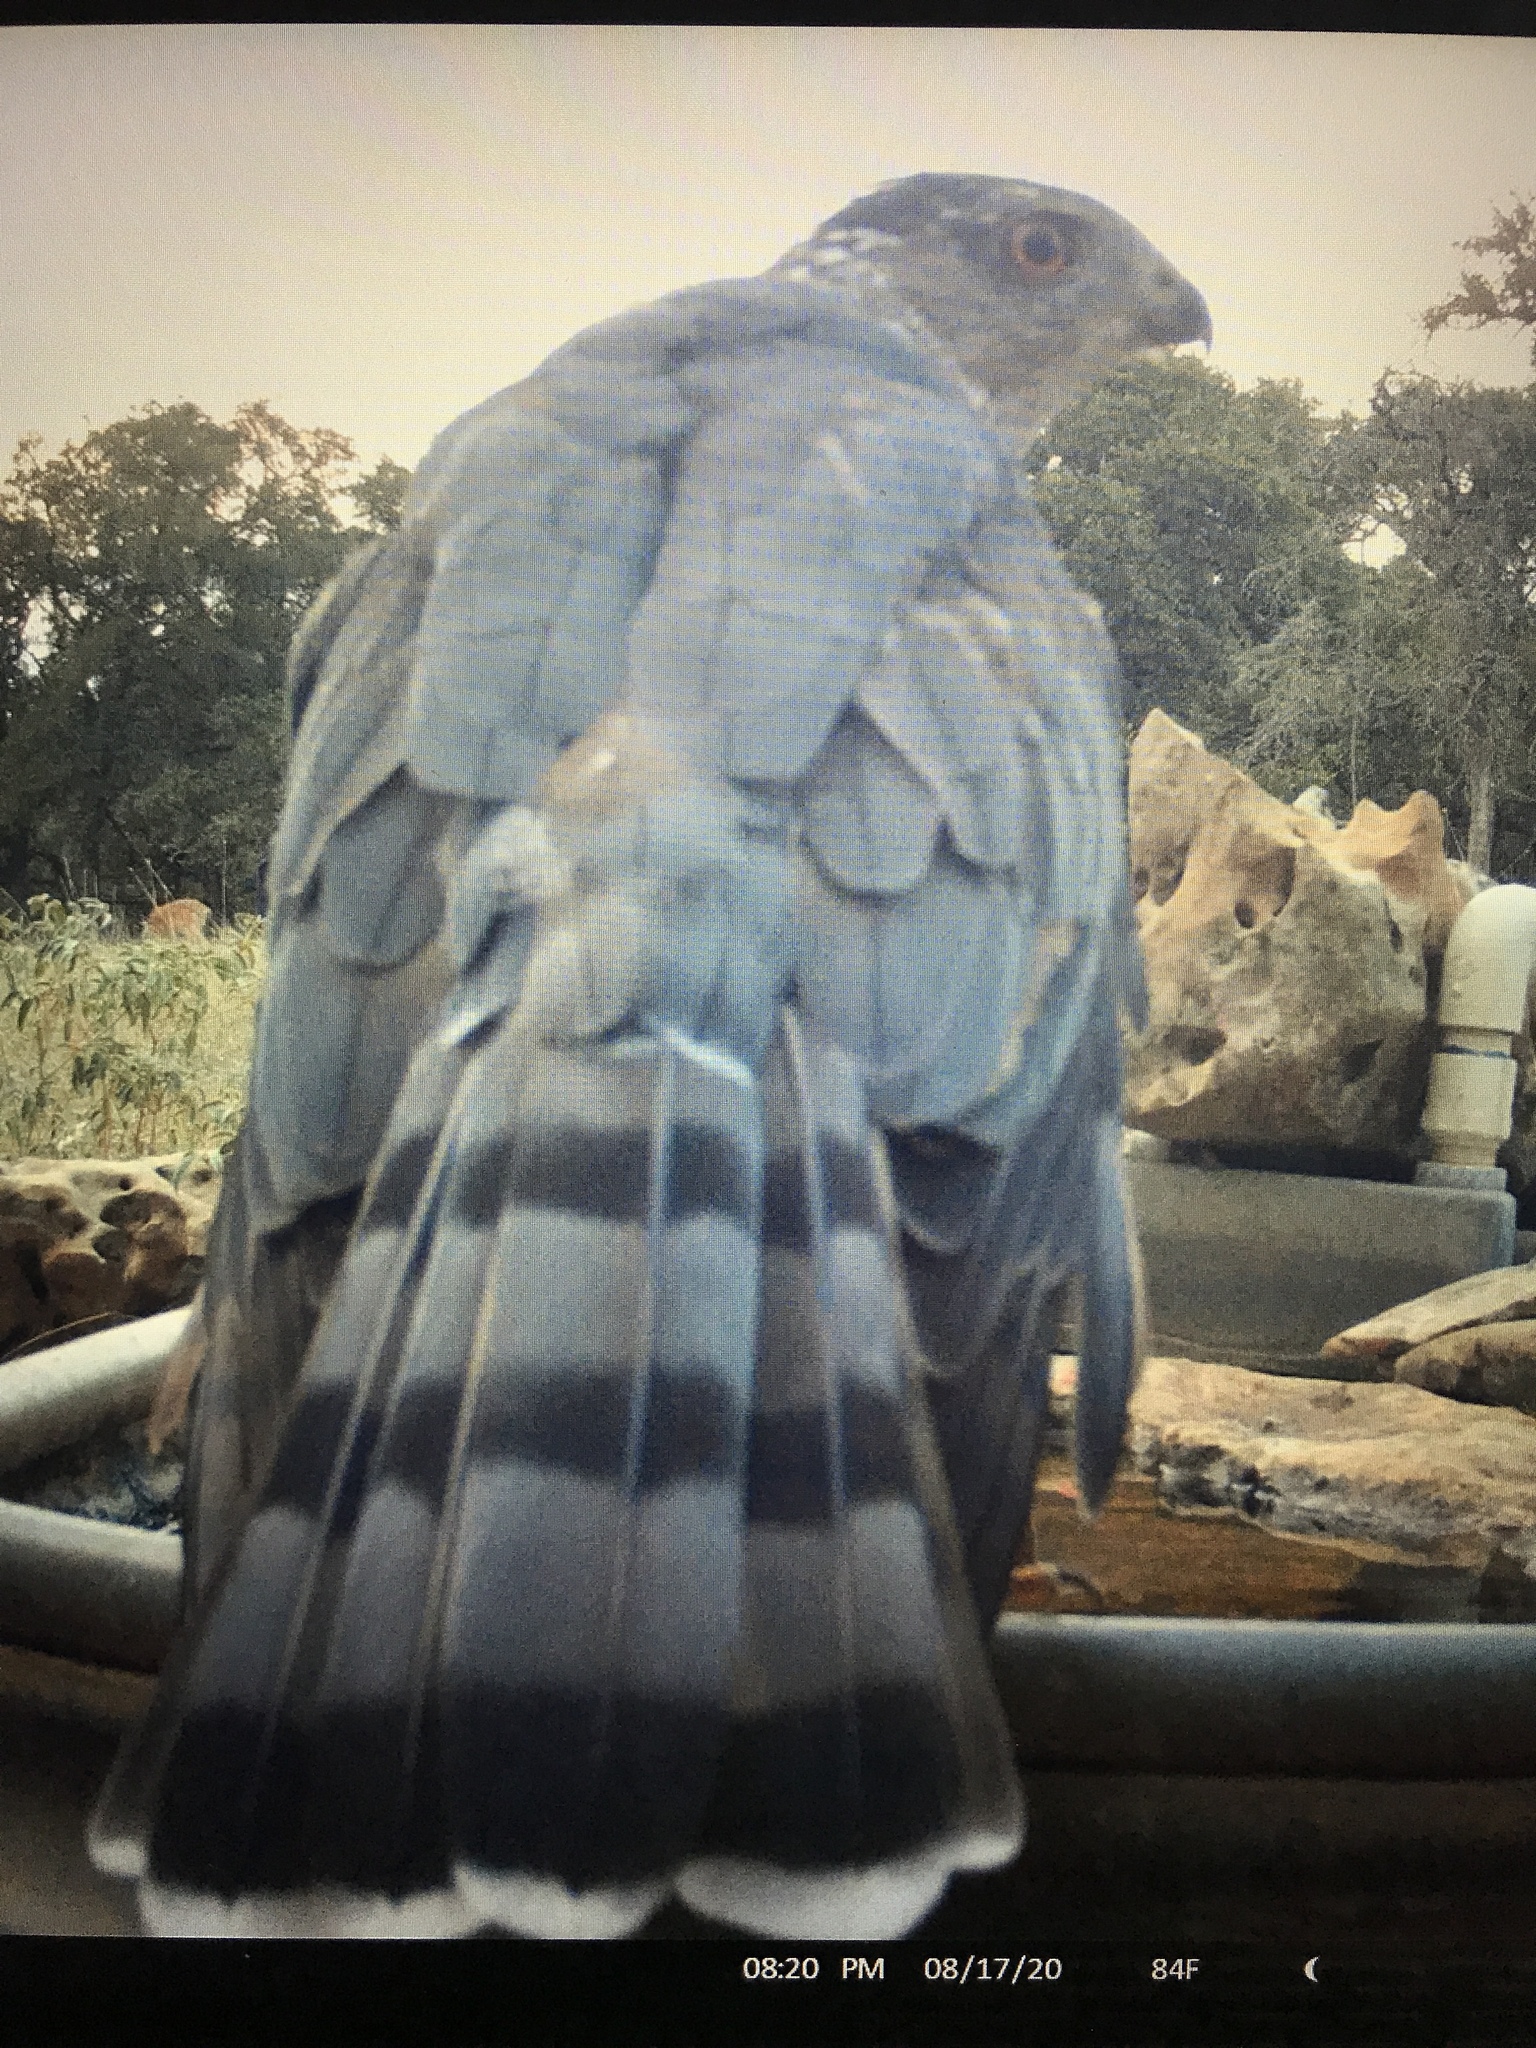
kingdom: Animalia
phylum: Chordata
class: Aves
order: Accipitriformes
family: Accipitridae
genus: Accipiter
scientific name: Accipiter cooperii
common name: Cooper's hawk
